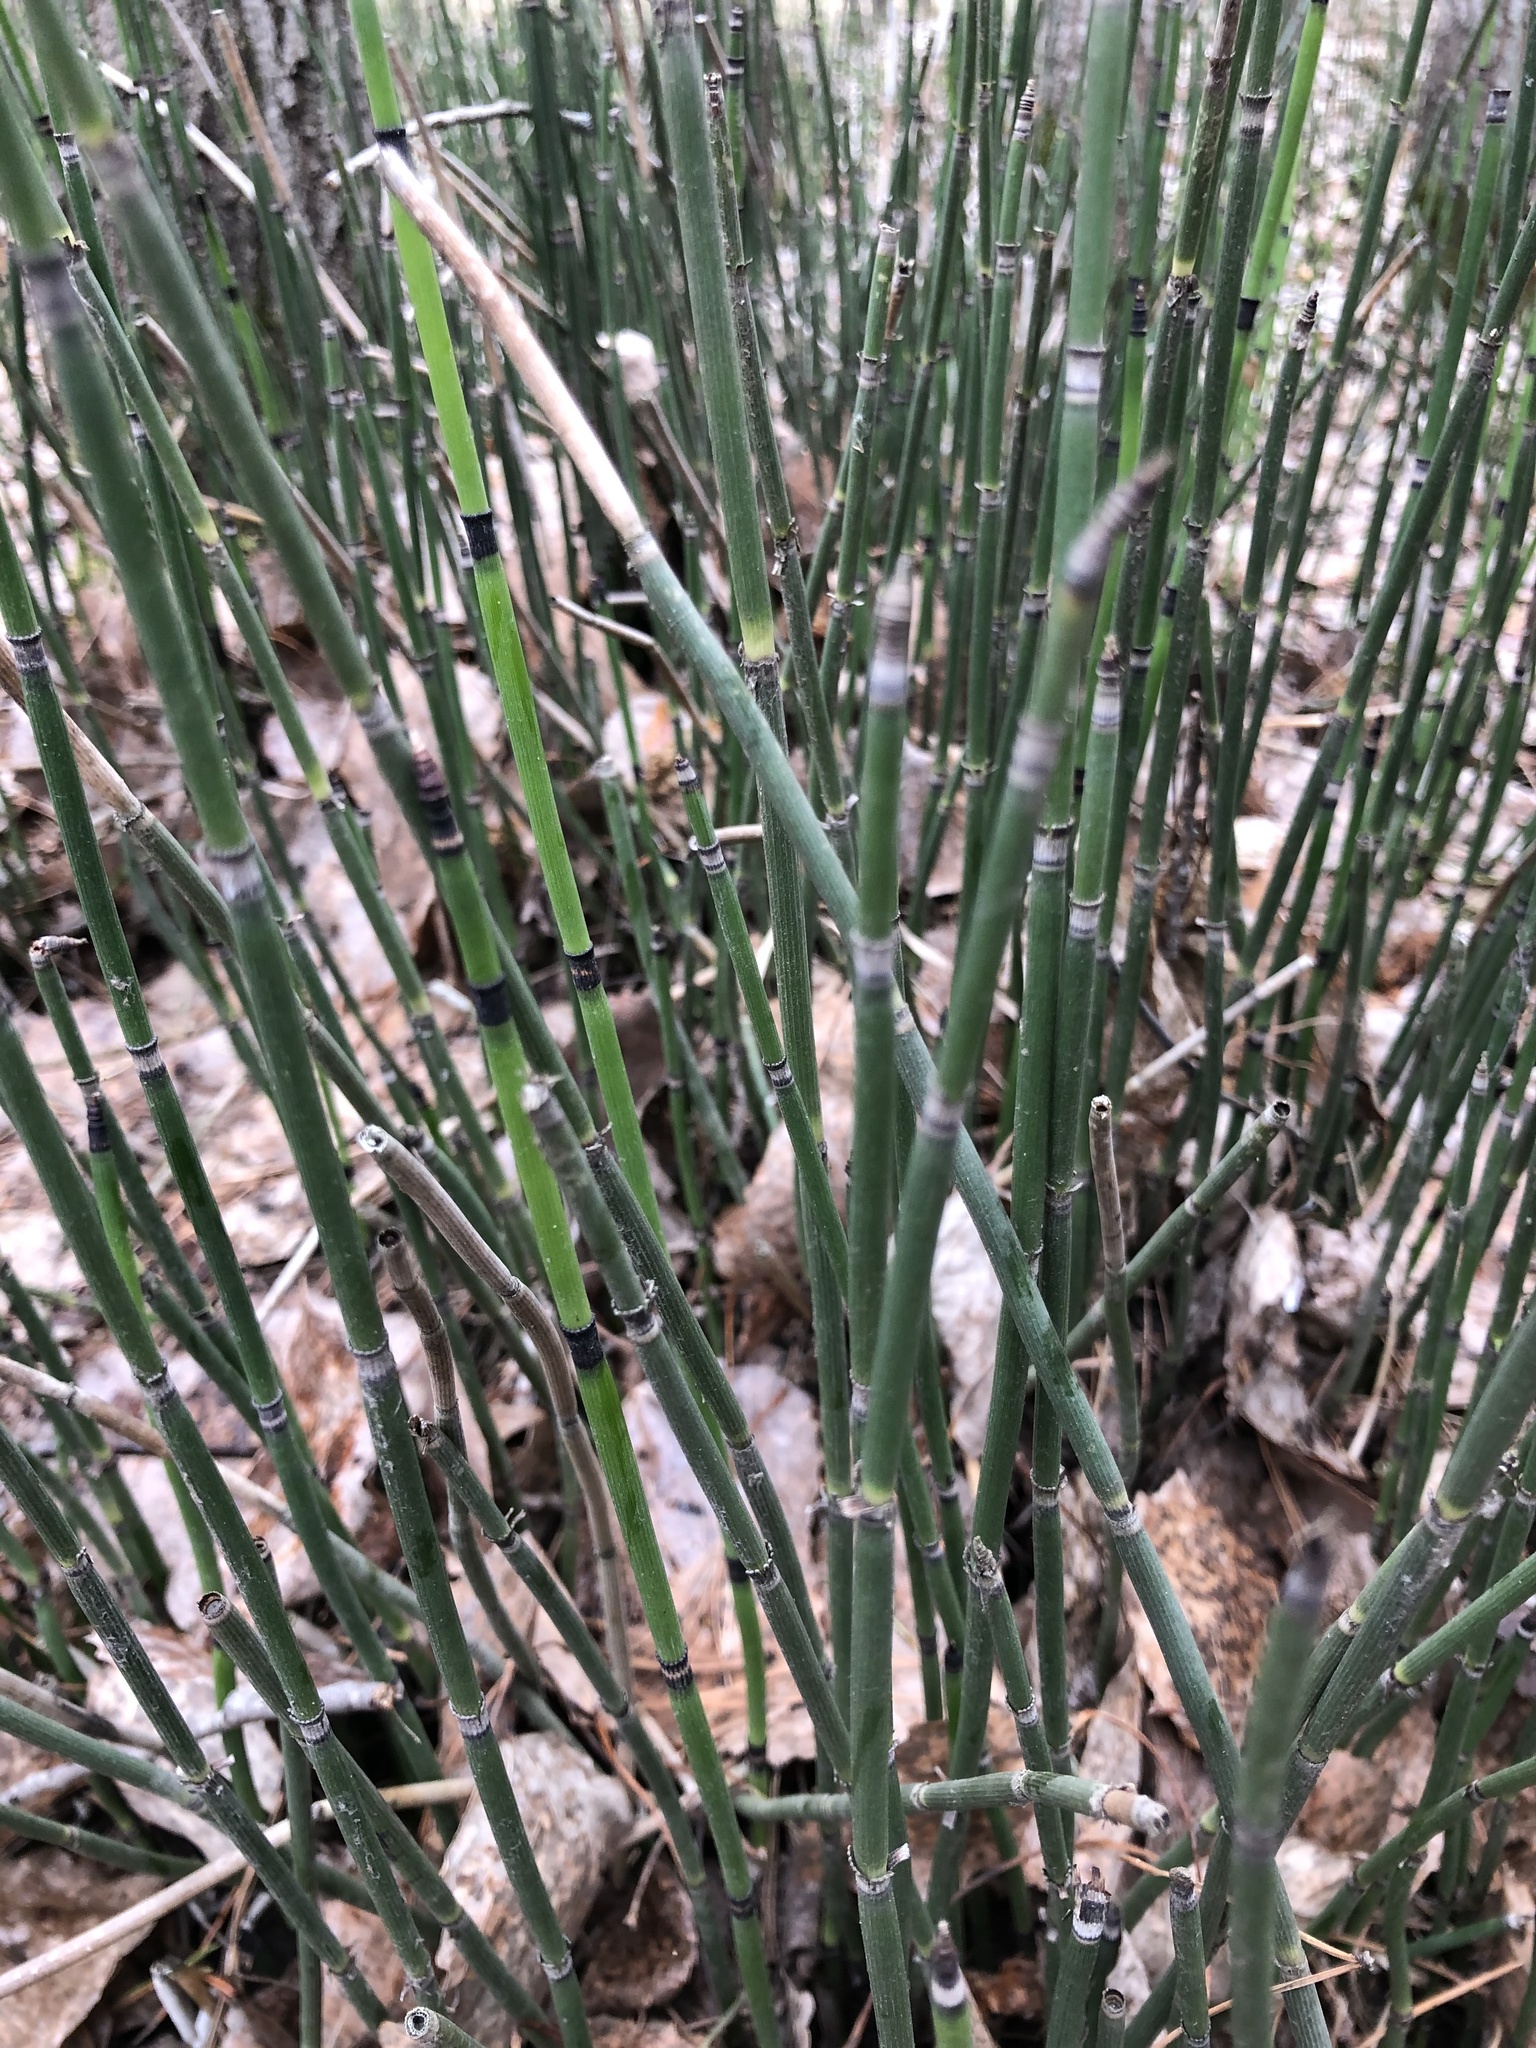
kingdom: Plantae
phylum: Tracheophyta
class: Polypodiopsida
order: Equisetales
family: Equisetaceae
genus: Equisetum
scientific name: Equisetum hyemale
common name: Rough horsetail
